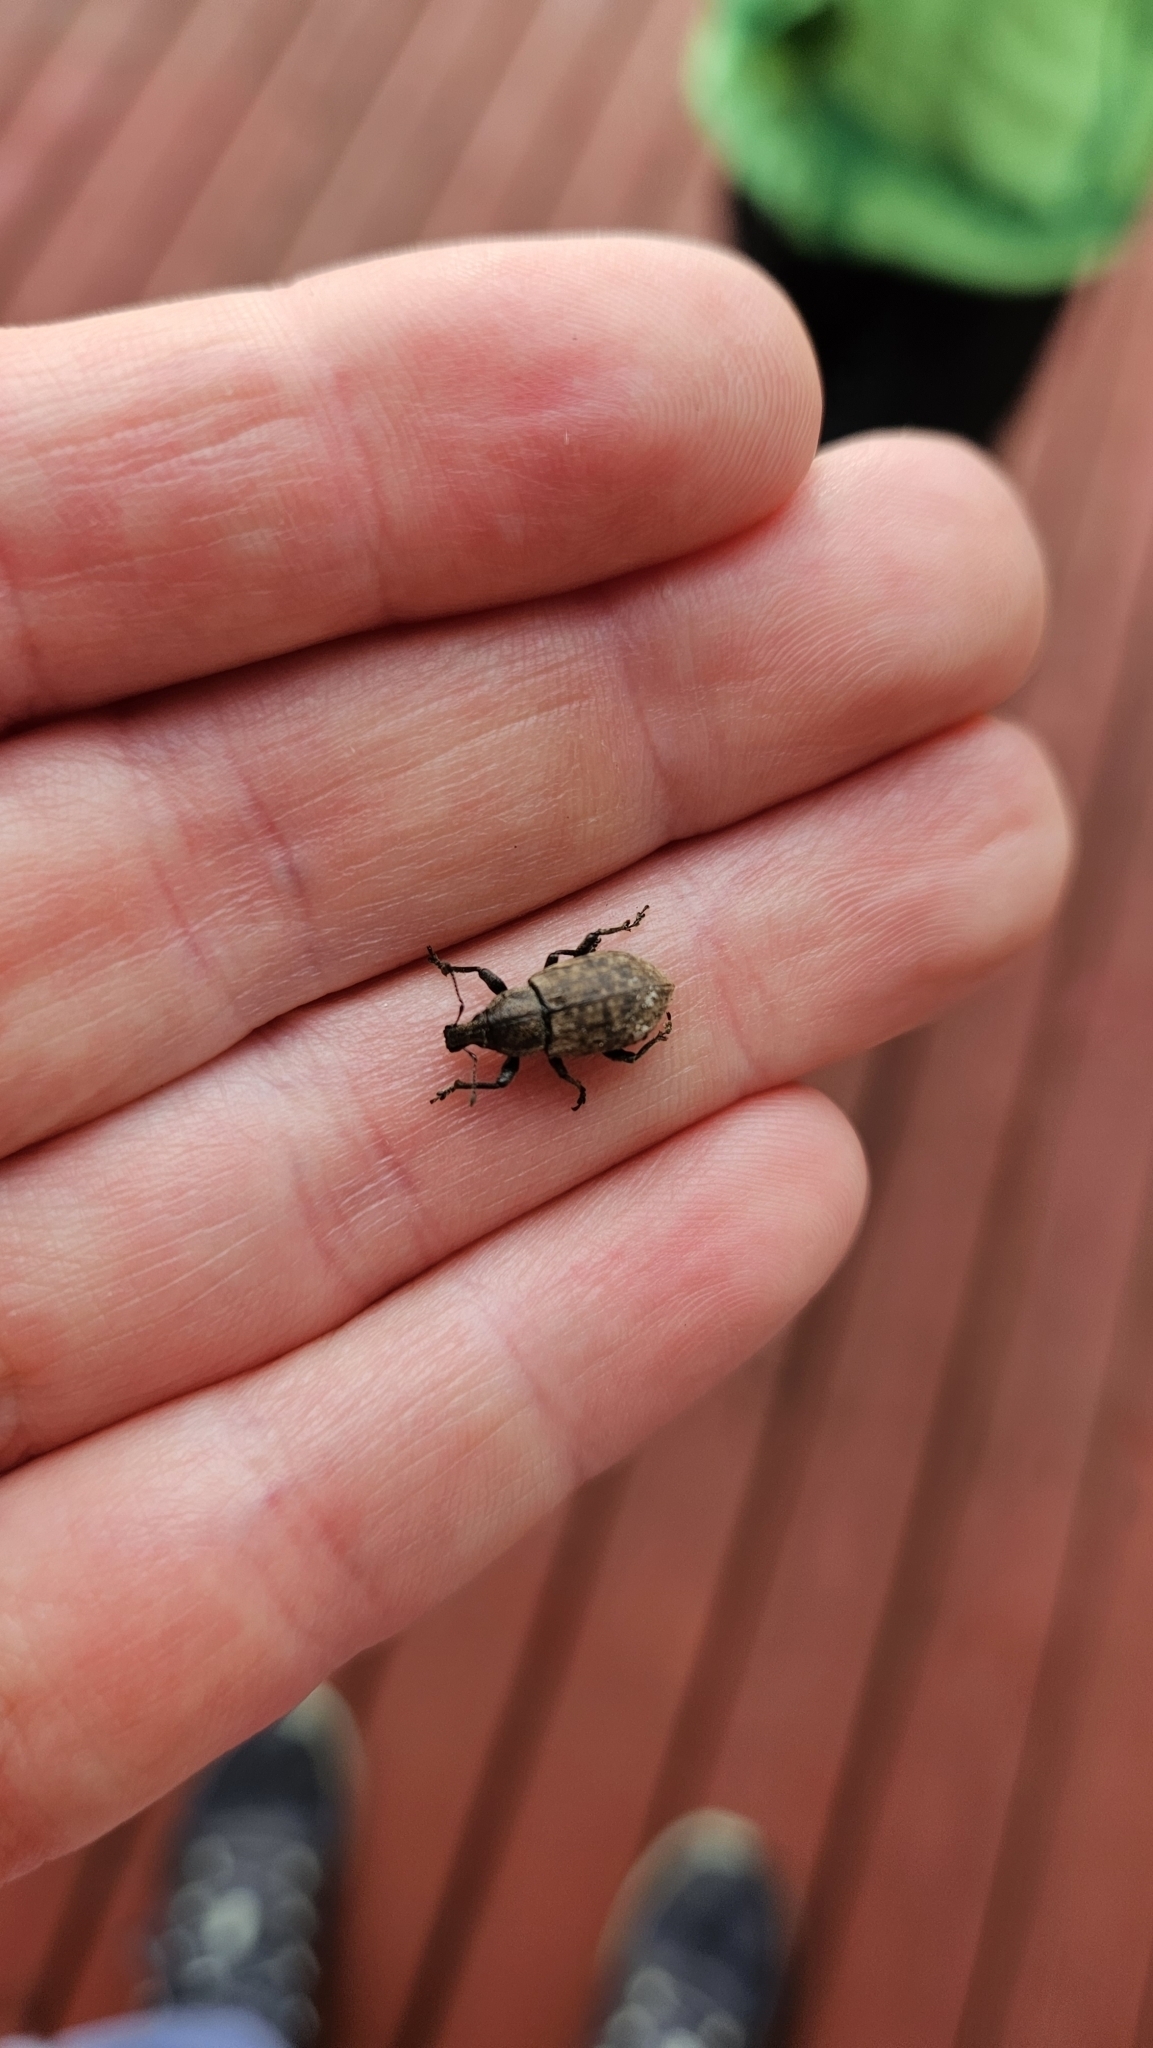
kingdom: Animalia
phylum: Arthropoda
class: Insecta
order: Coleoptera
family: Curculionidae
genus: Barynotus
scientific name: Barynotus obscurus
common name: Weevil
